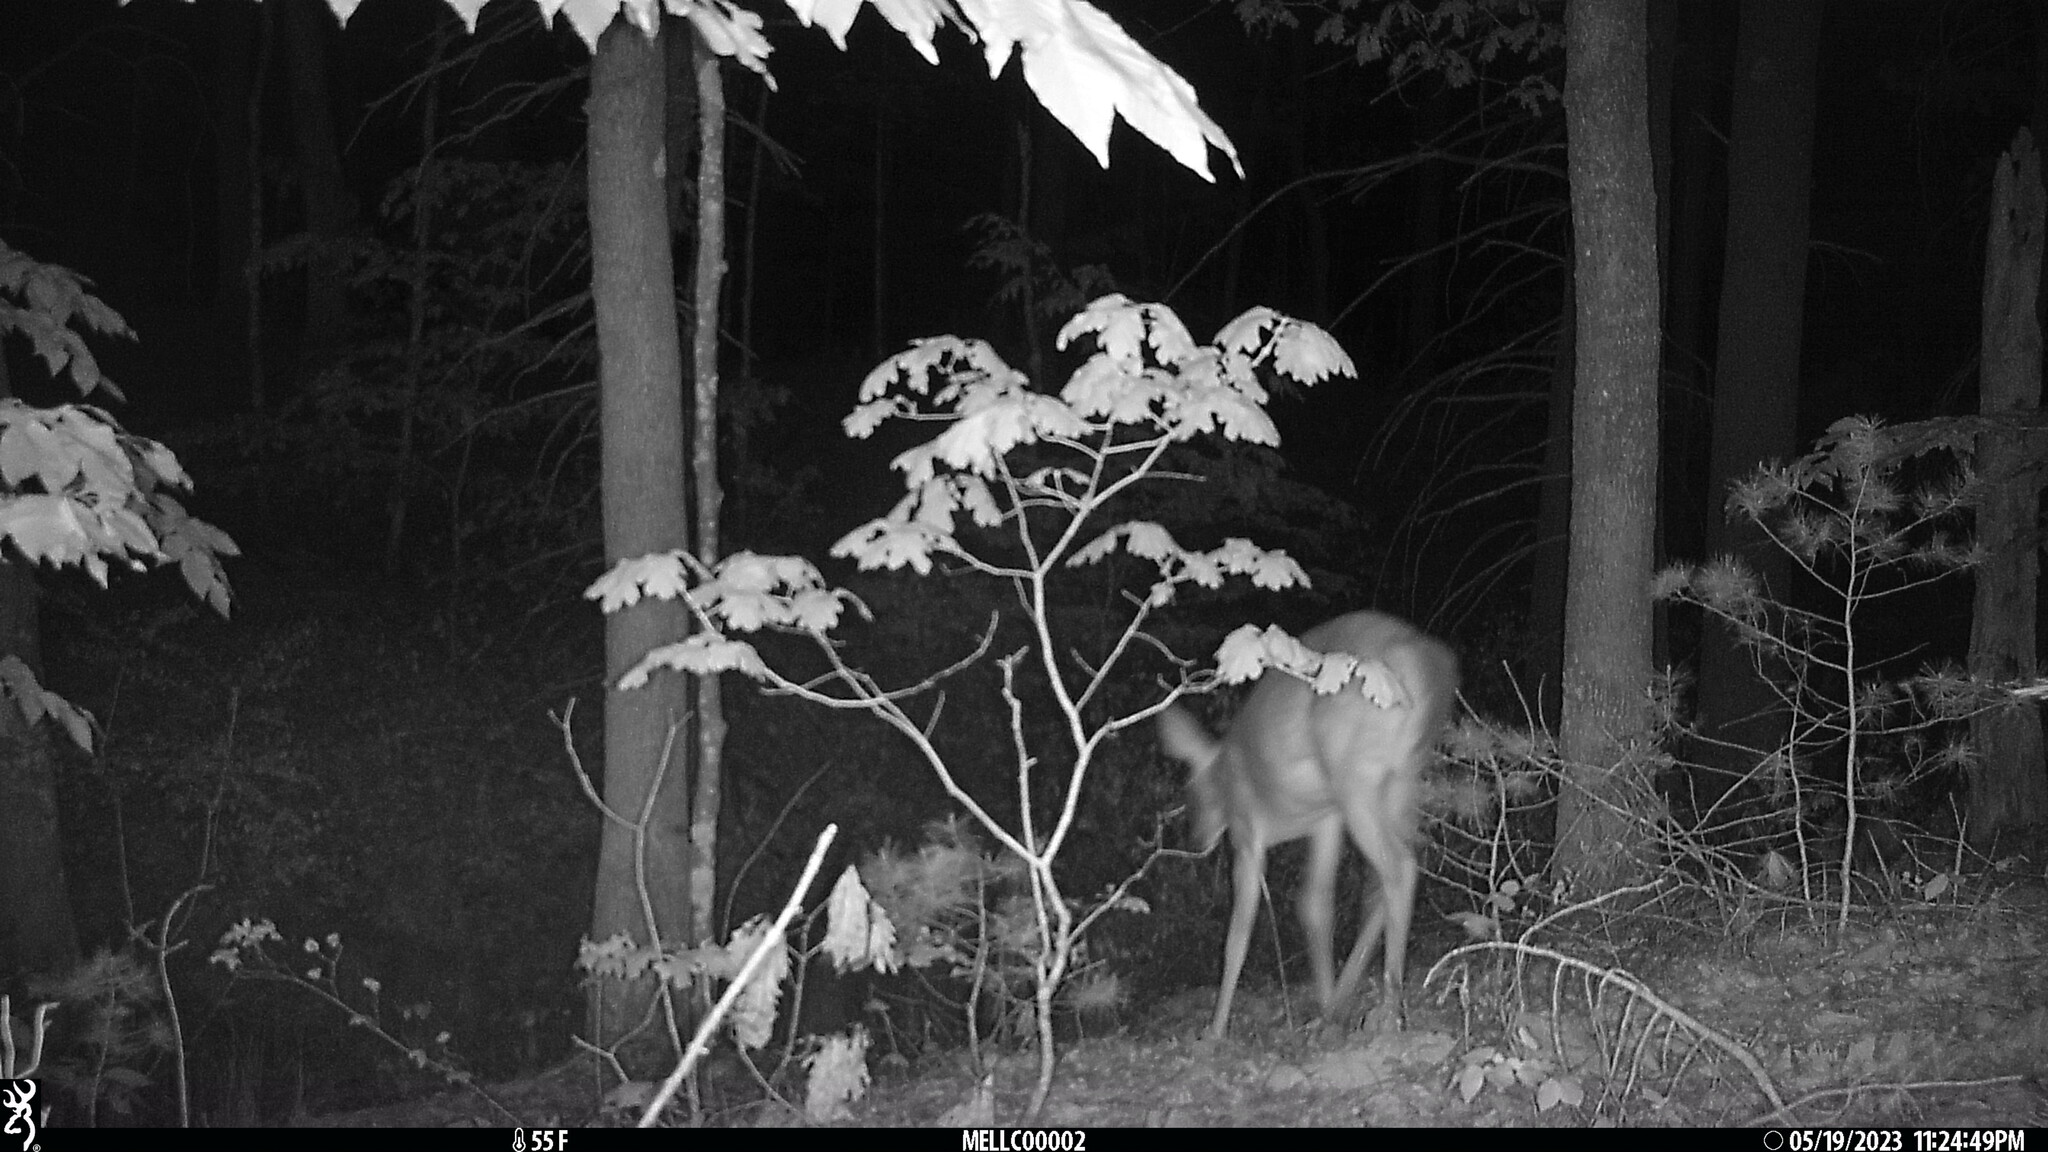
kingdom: Animalia
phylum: Chordata
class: Mammalia
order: Artiodactyla
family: Cervidae
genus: Odocoileus
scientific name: Odocoileus virginianus
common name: White-tailed deer
